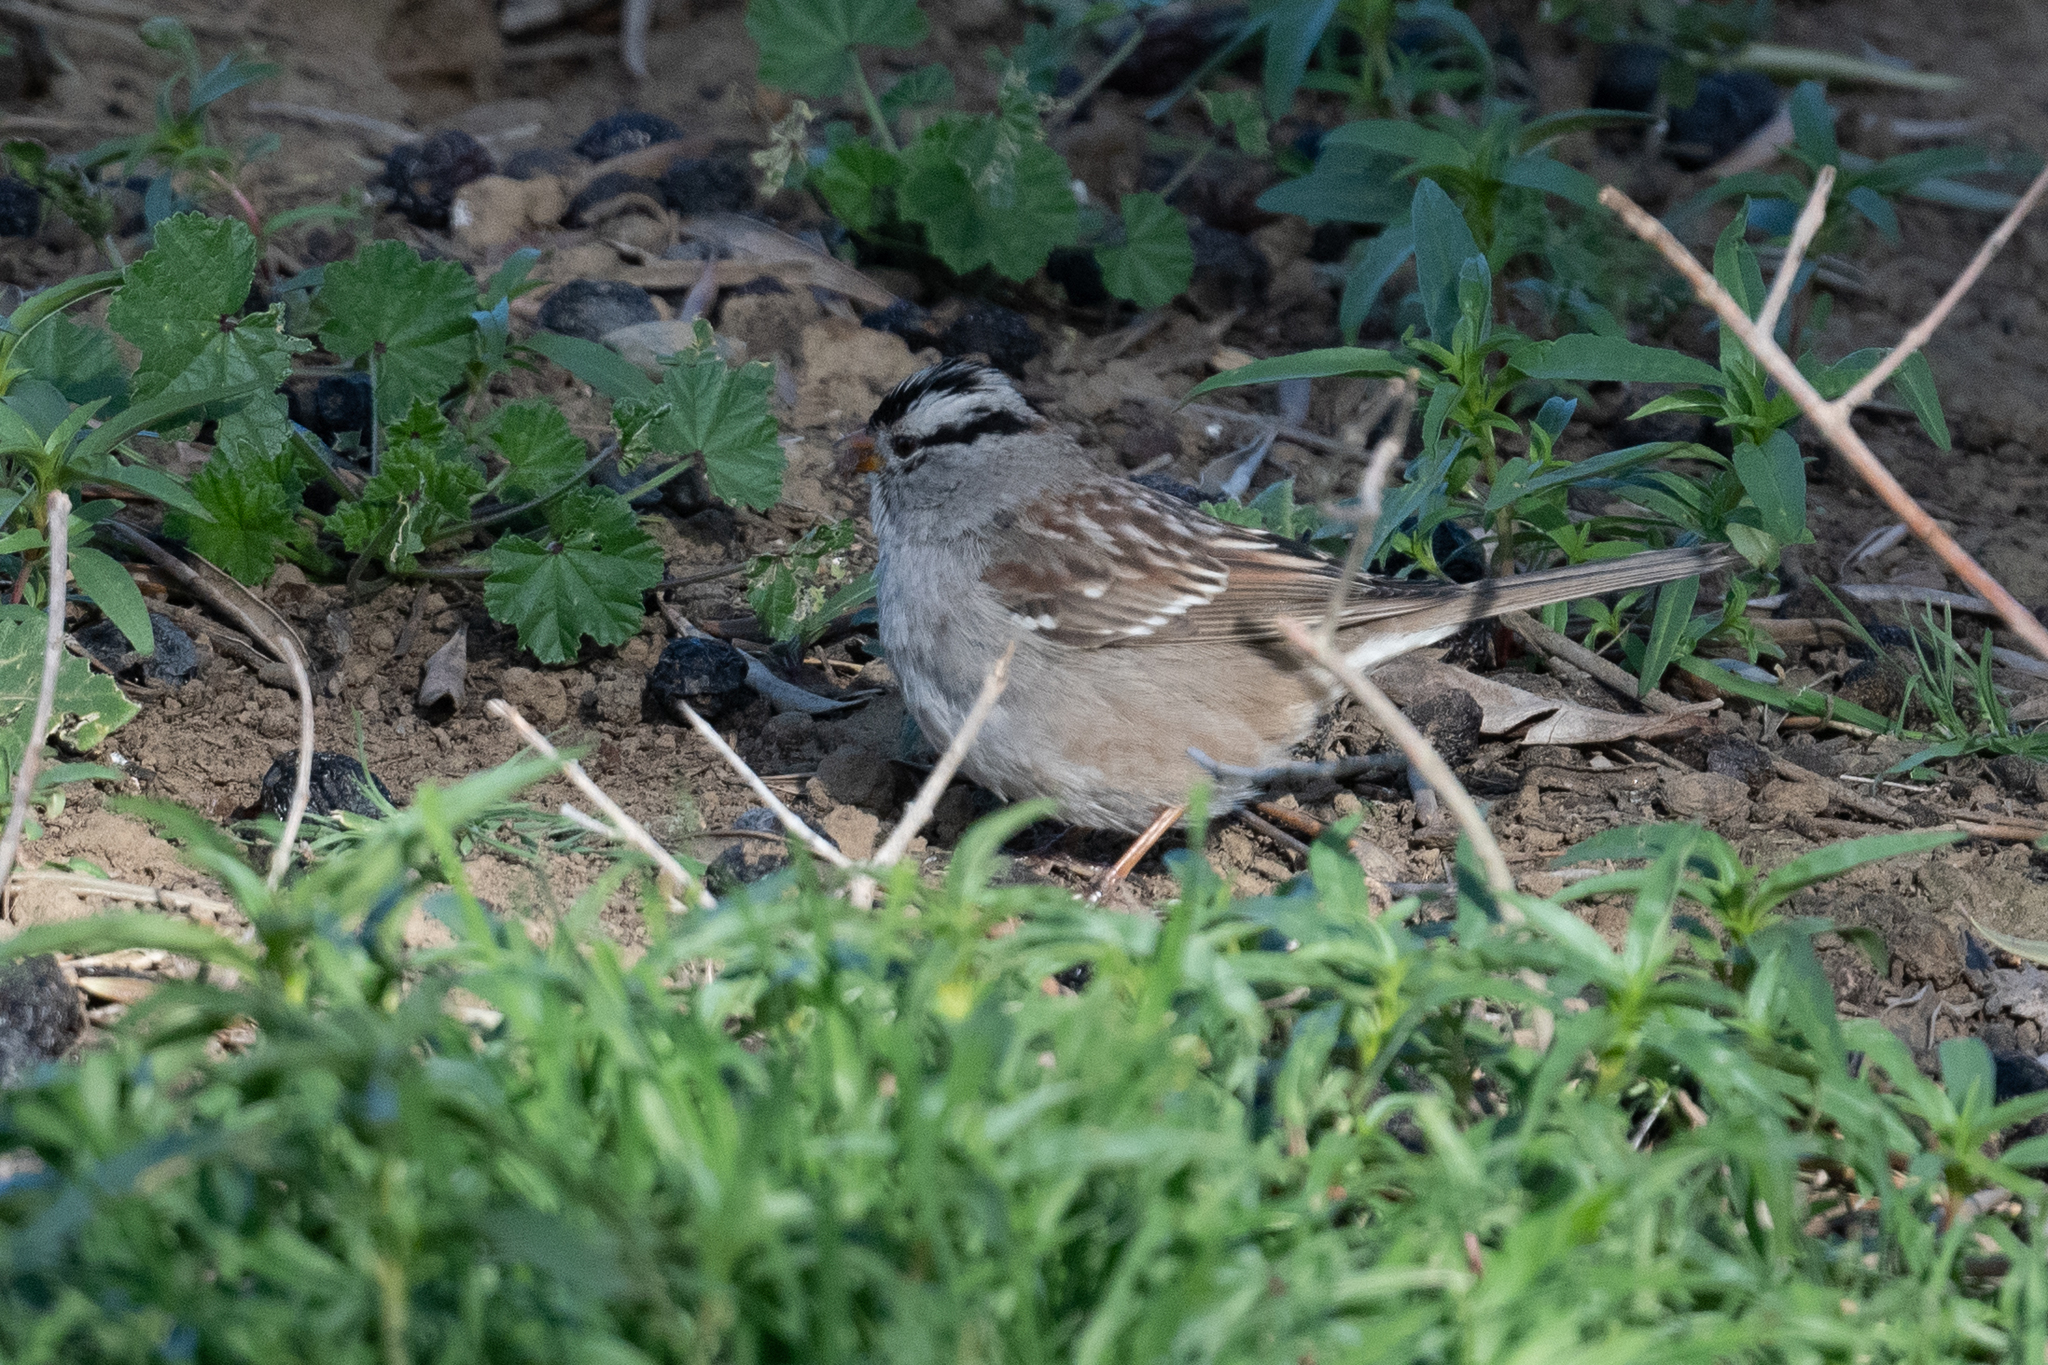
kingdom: Animalia
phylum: Chordata
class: Aves
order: Passeriformes
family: Passerellidae
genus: Zonotrichia
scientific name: Zonotrichia leucophrys
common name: White-crowned sparrow
